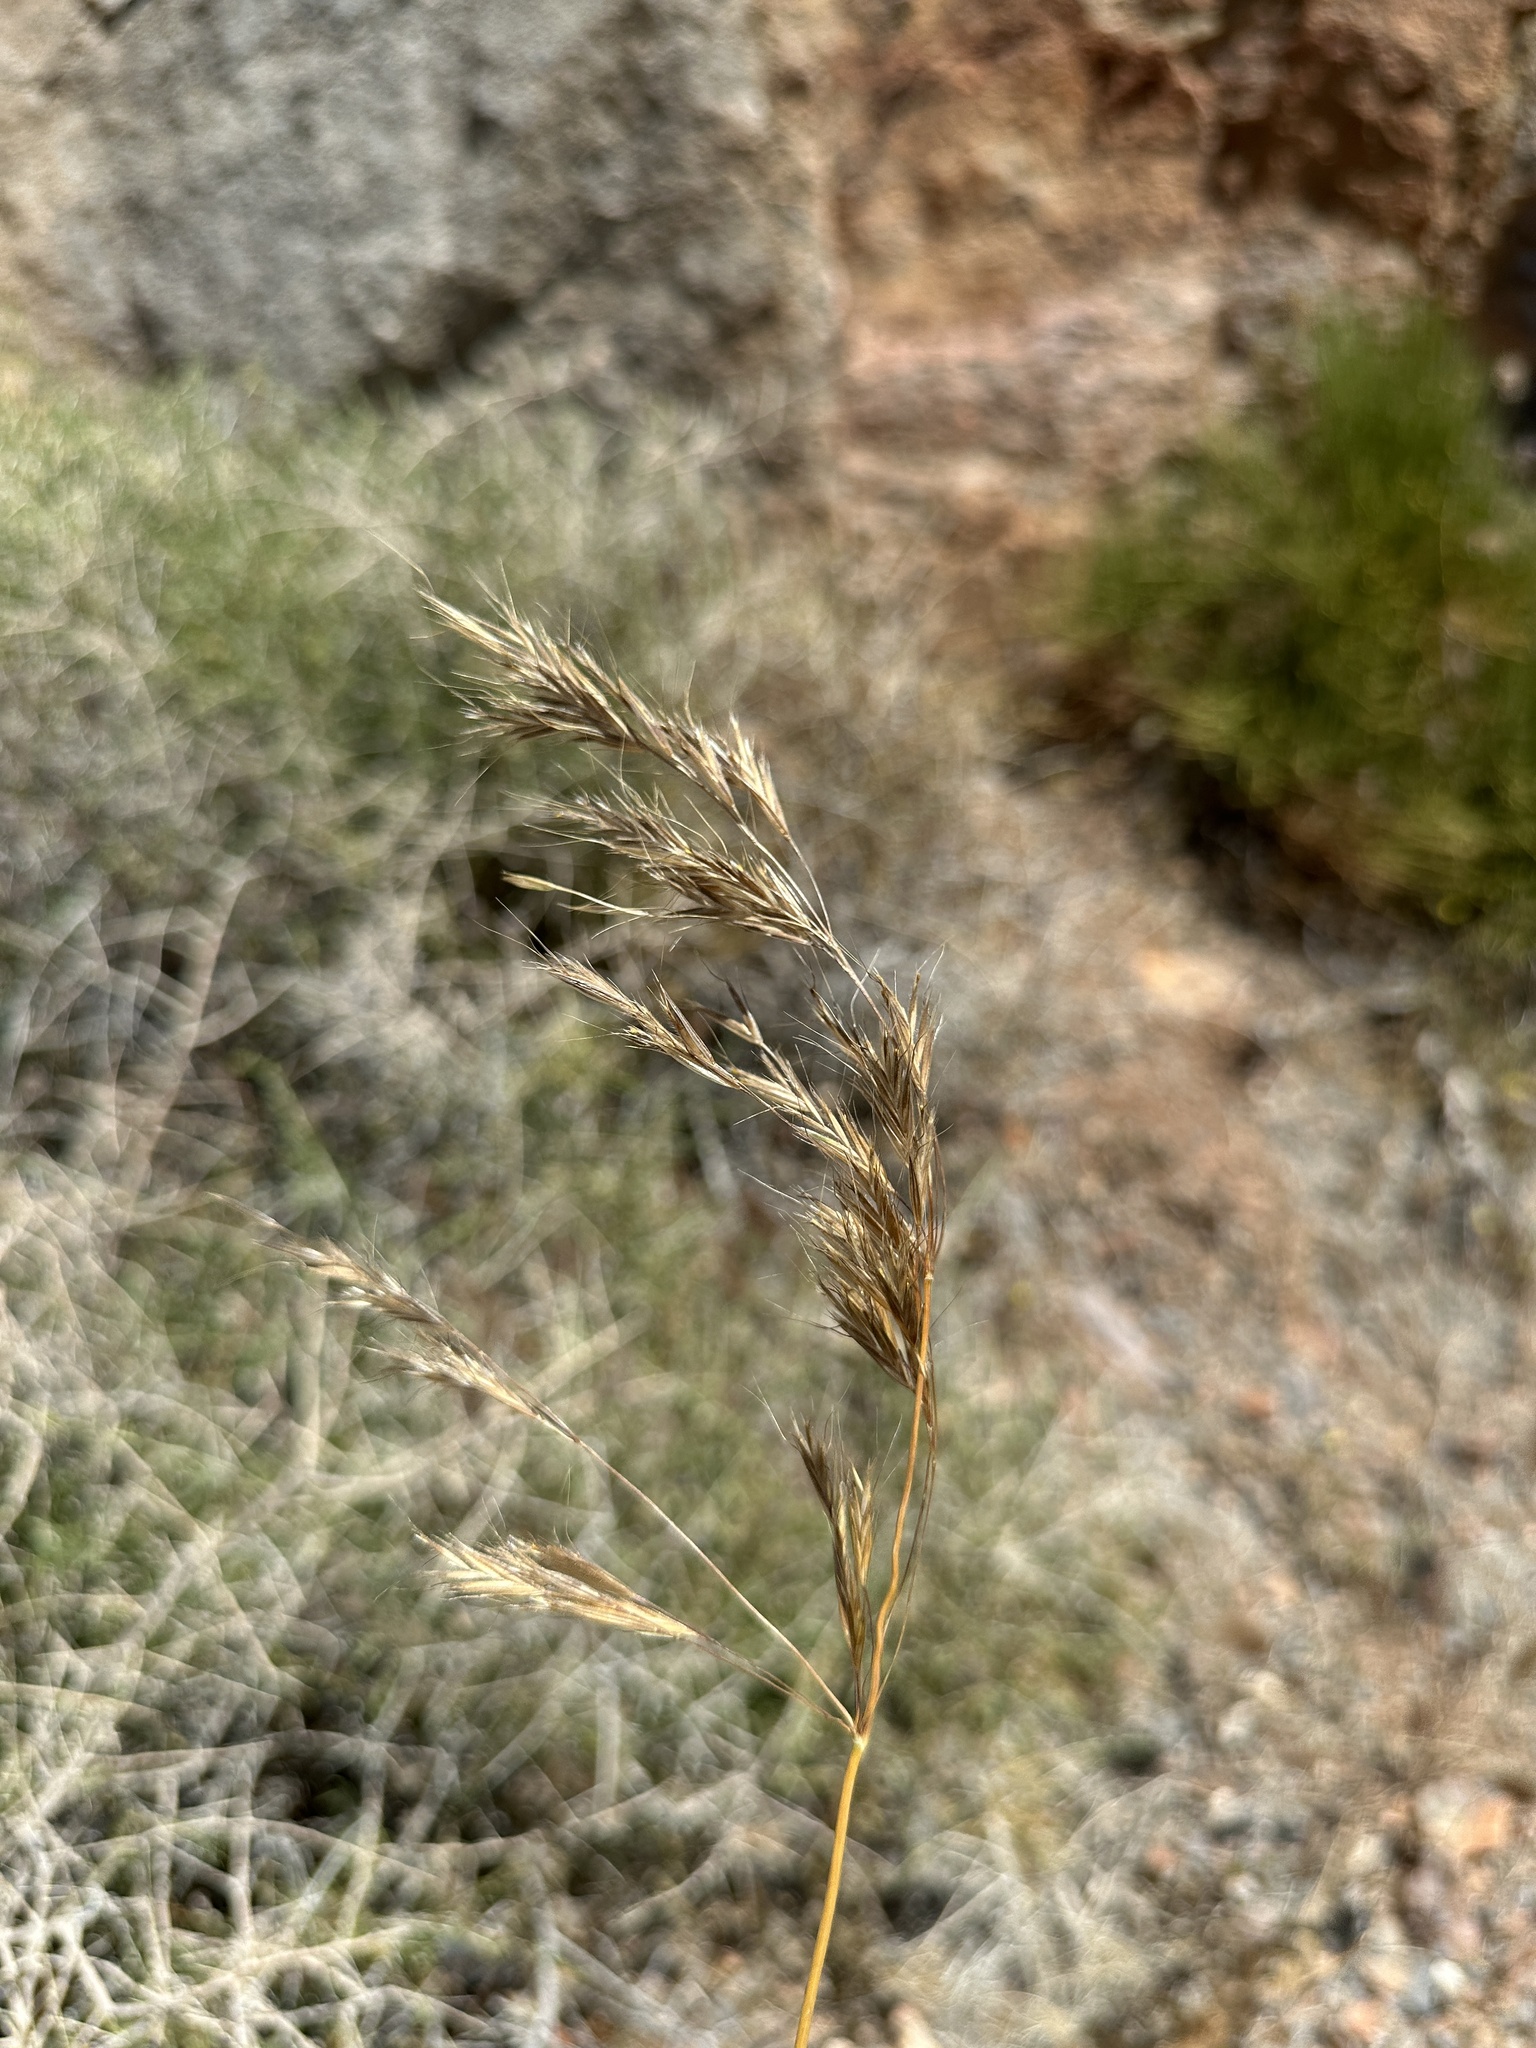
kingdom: Plantae
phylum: Tracheophyta
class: Liliopsida
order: Poales
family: Poaceae
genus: Bromus
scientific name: Bromus berteroanus
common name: Chilean chess
